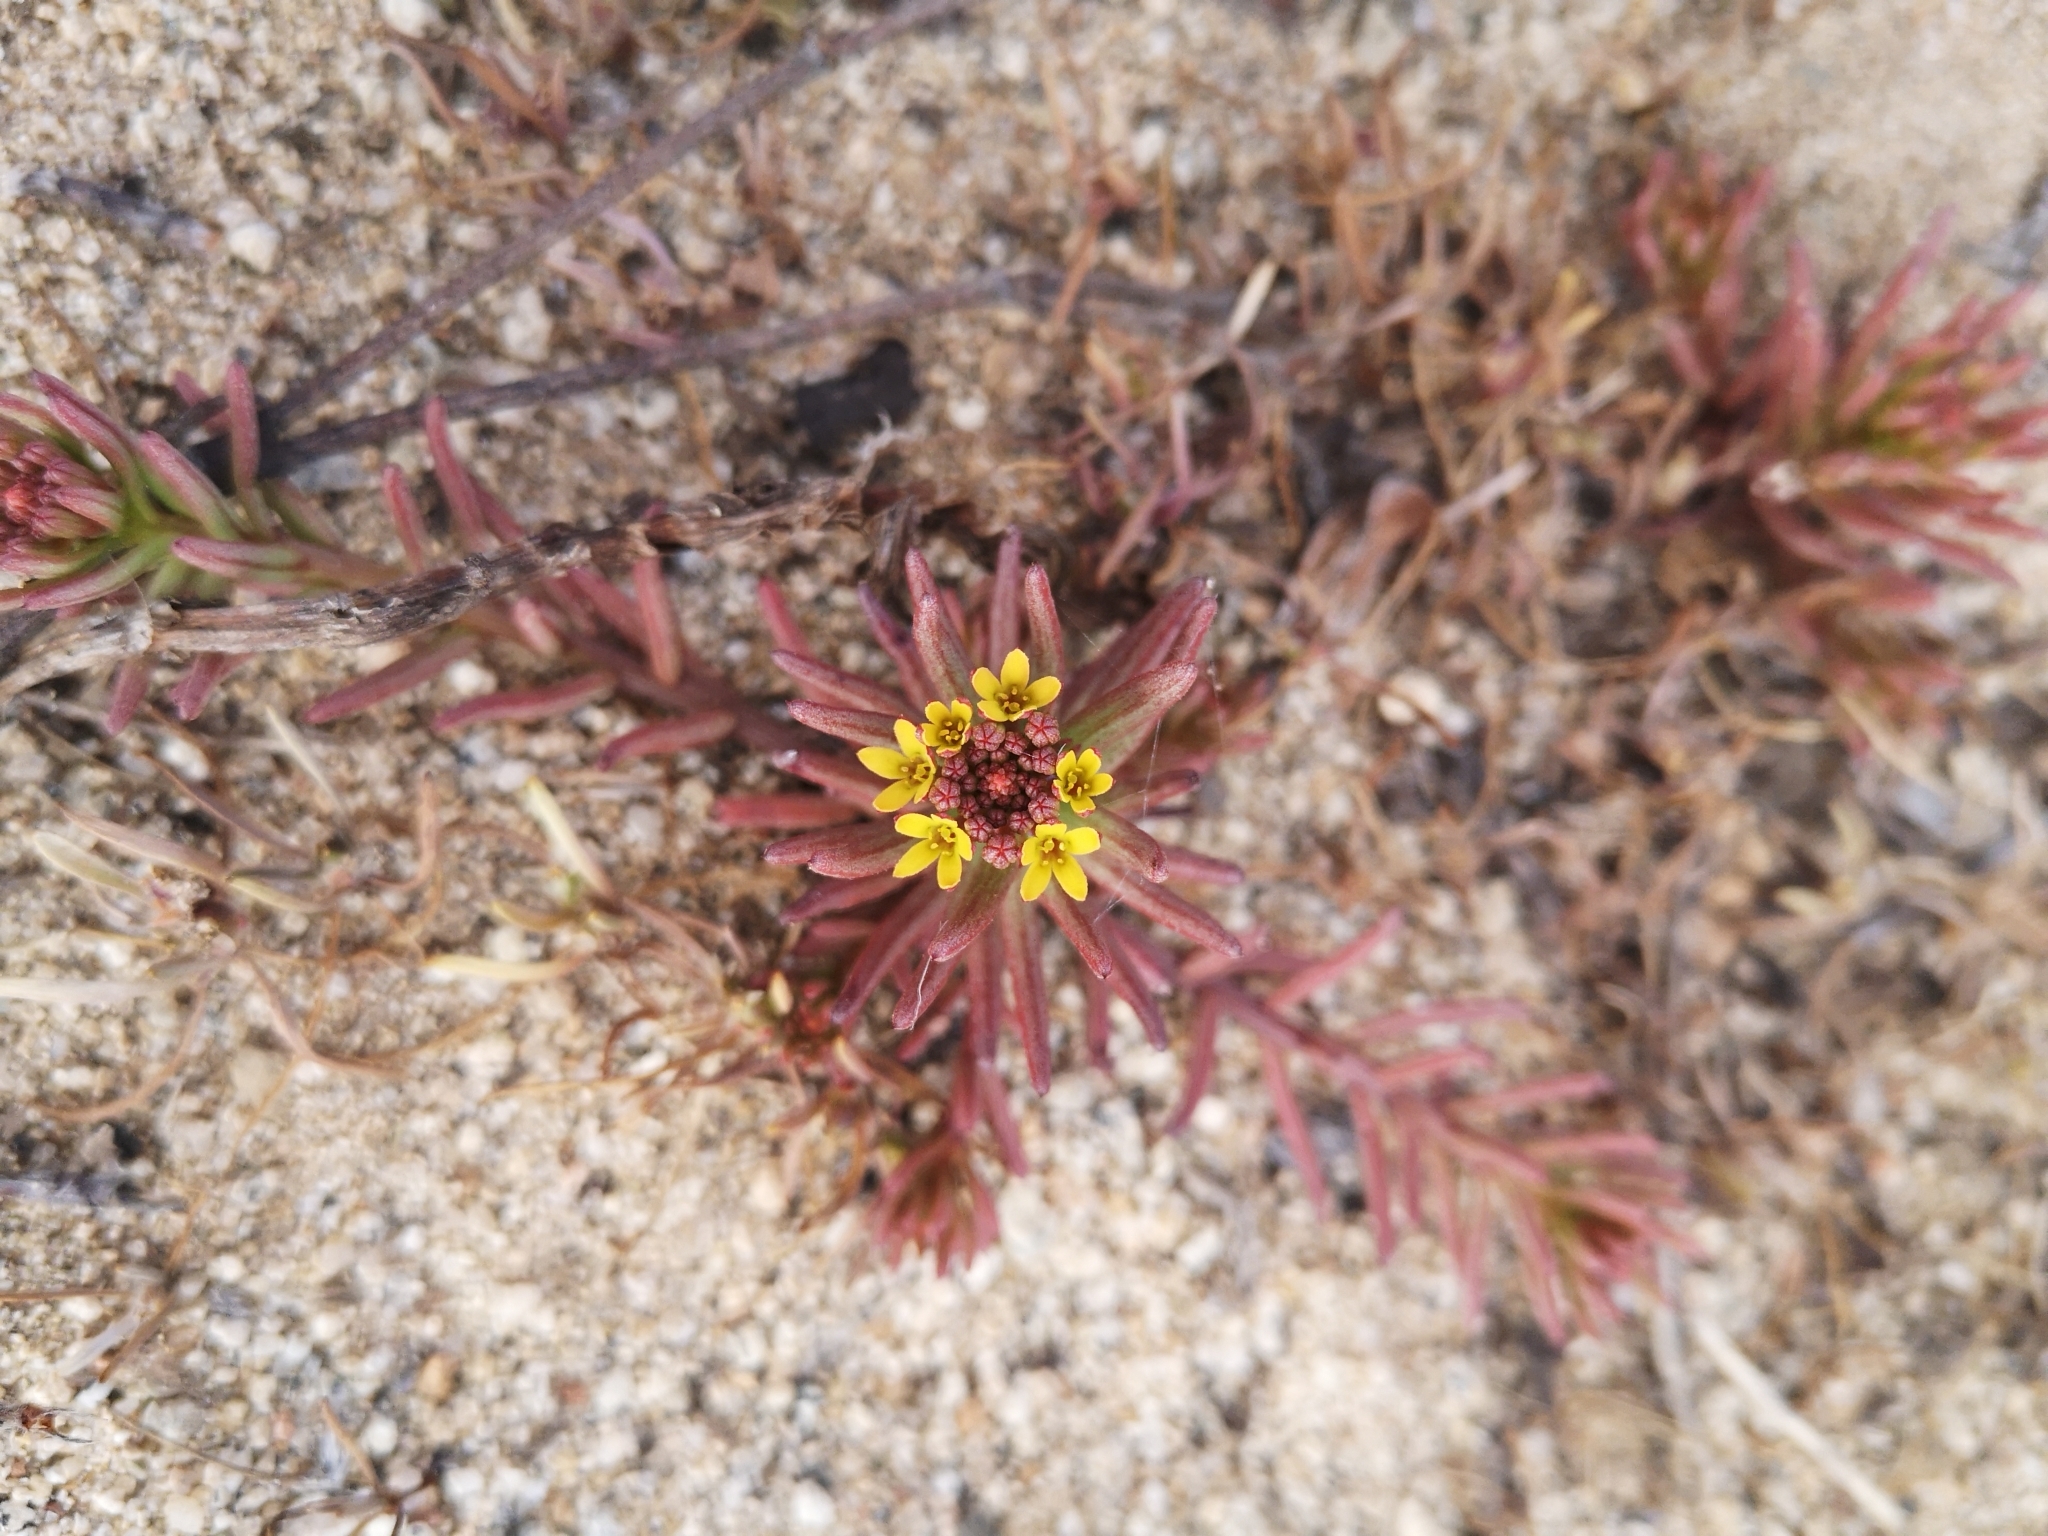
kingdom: Plantae
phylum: Tracheophyta
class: Magnoliopsida
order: Santalales
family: Schoepfiaceae
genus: Quinchamalium
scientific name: Quinchamalium chilense
